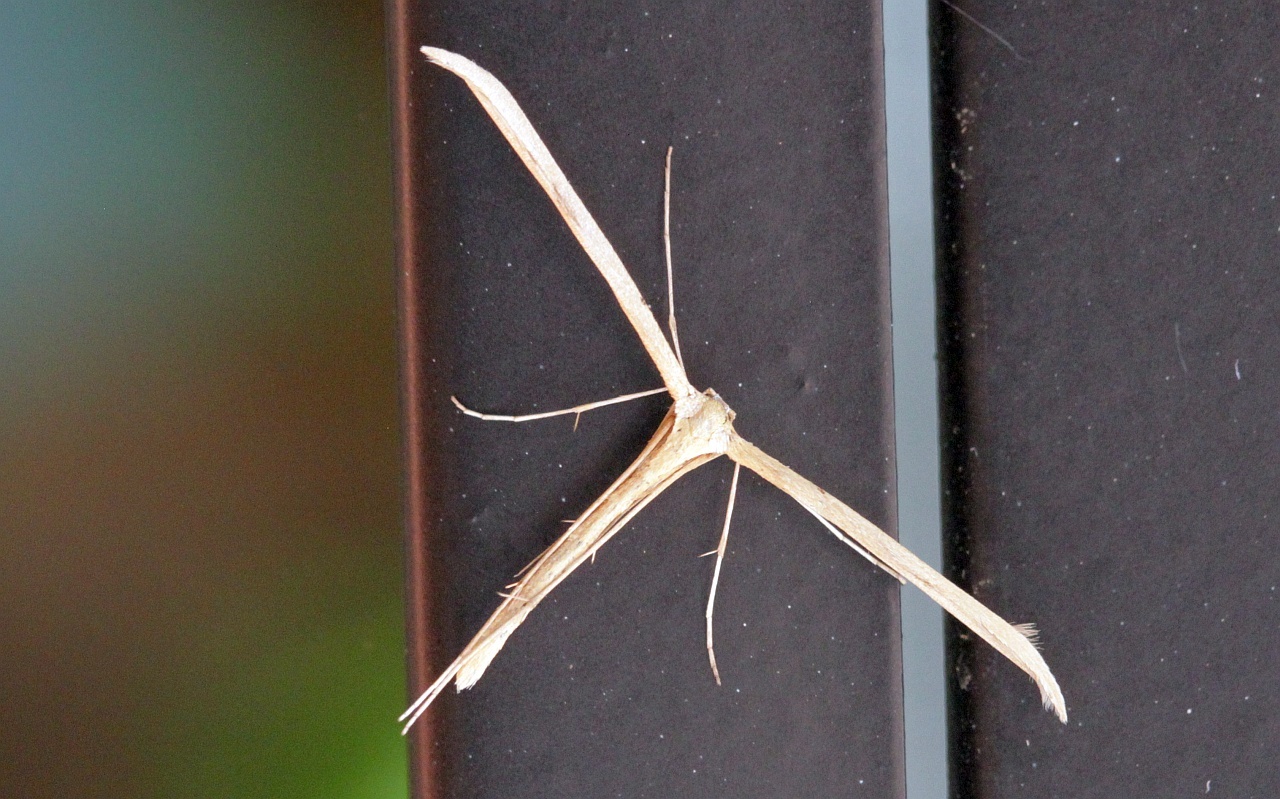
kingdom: Animalia
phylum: Arthropoda
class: Insecta
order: Lepidoptera
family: Pterophoridae
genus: Emmelina
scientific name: Emmelina monodactyla
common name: Common plume
